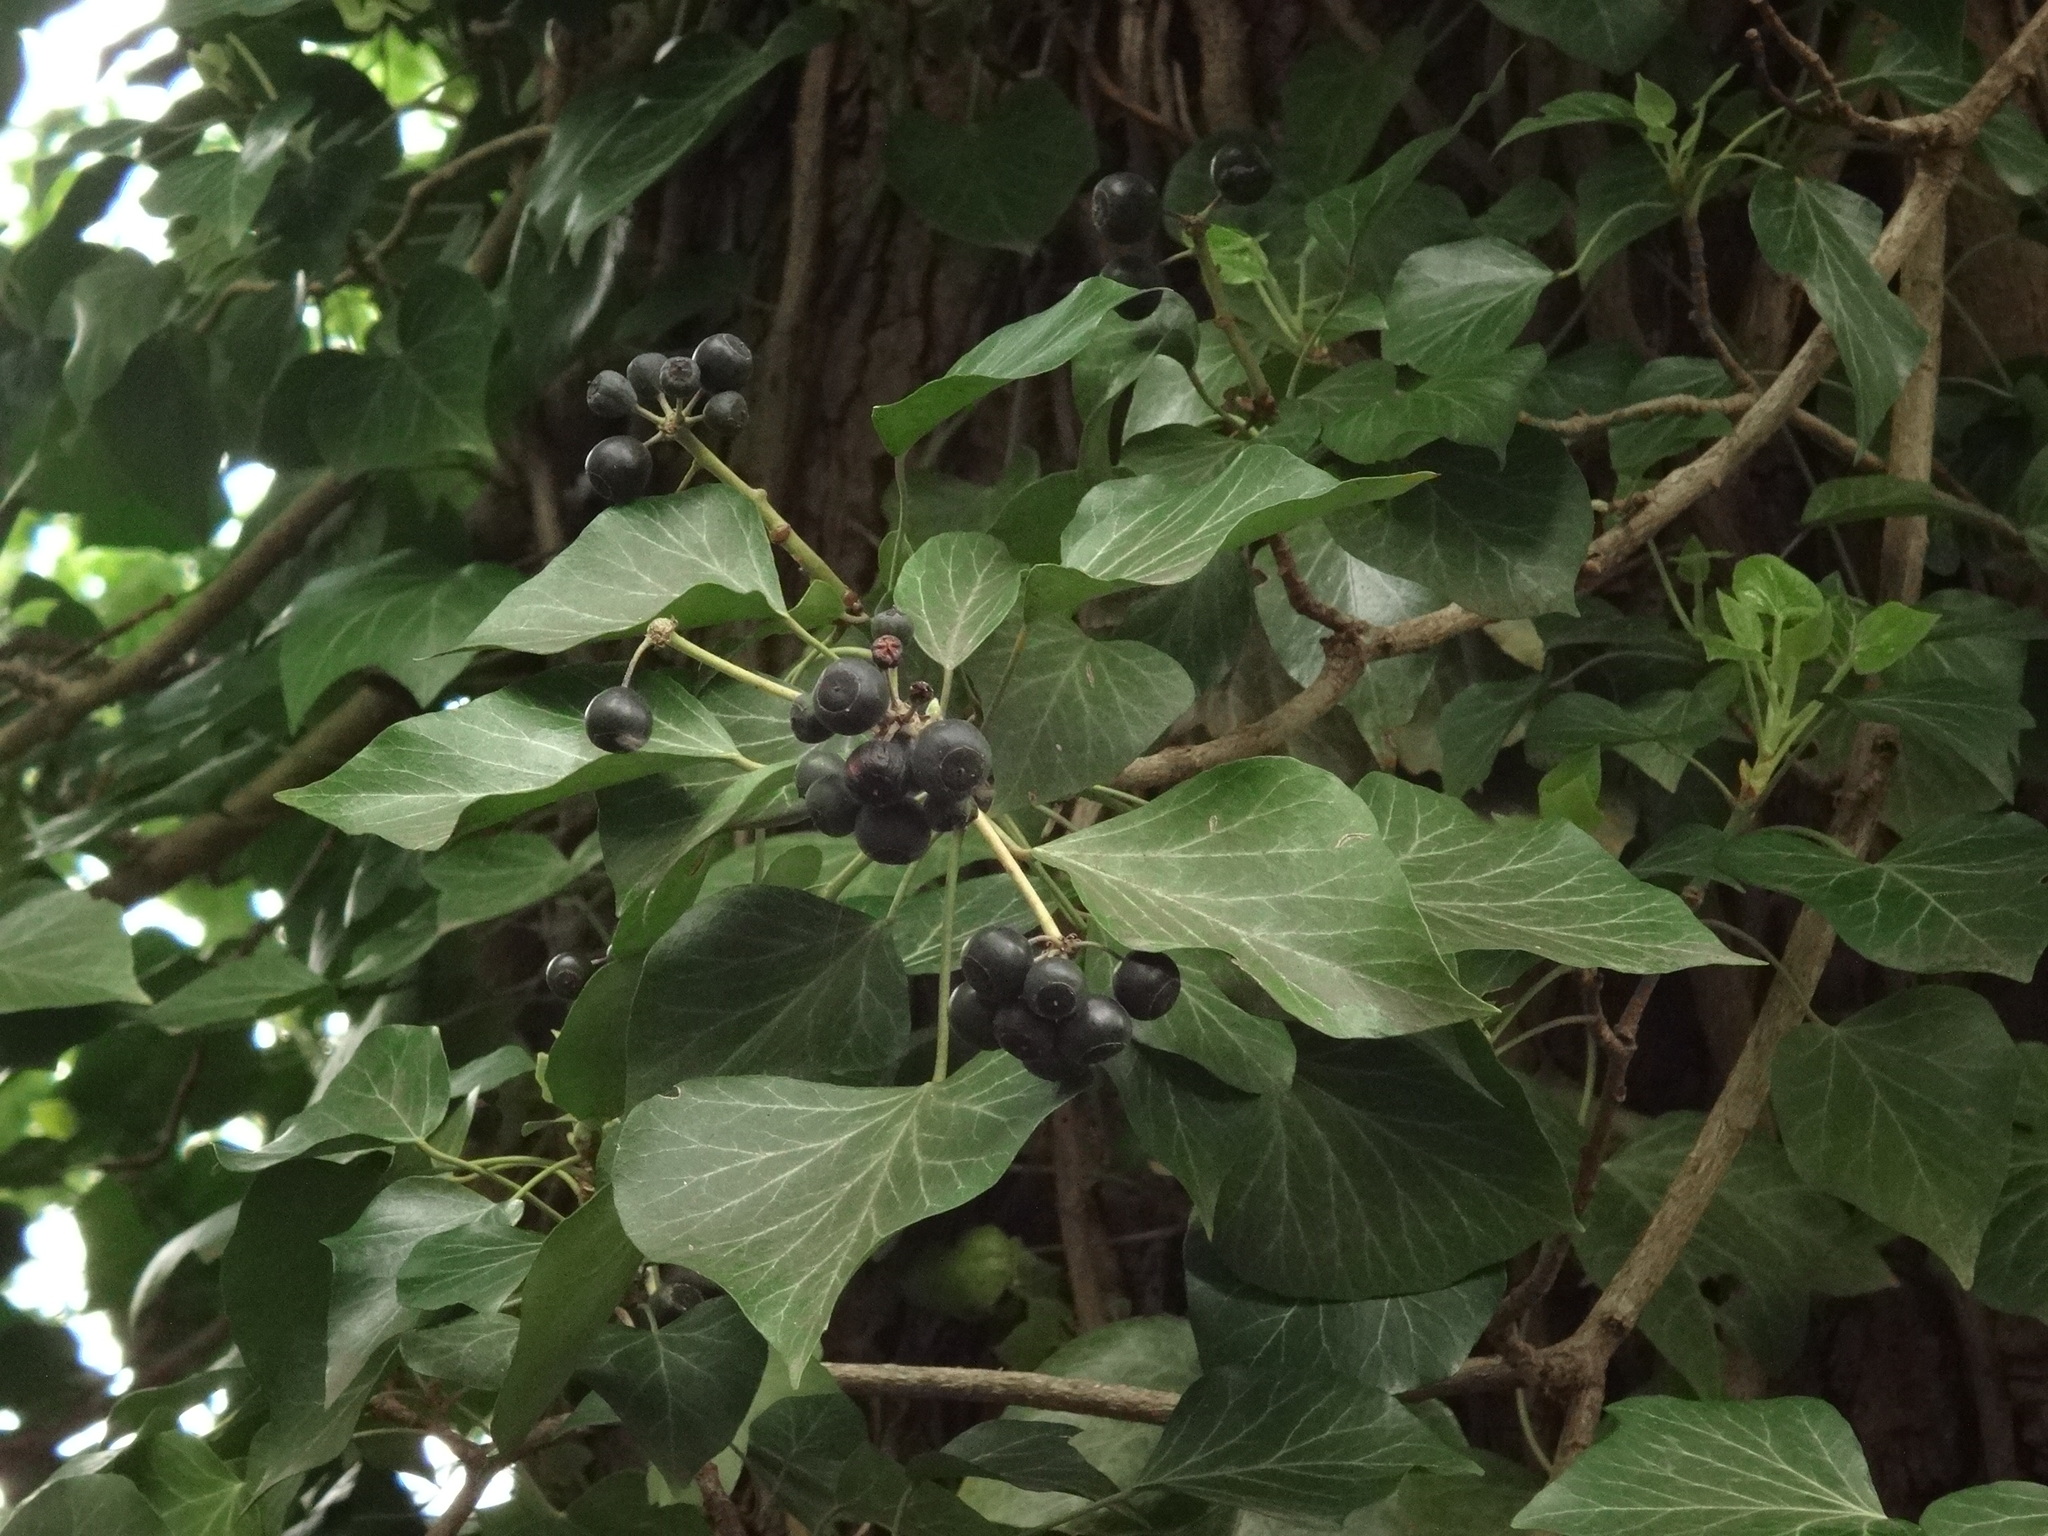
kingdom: Plantae
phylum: Tracheophyta
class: Magnoliopsida
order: Apiales
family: Araliaceae
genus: Hedera
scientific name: Hedera helix
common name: Ivy
